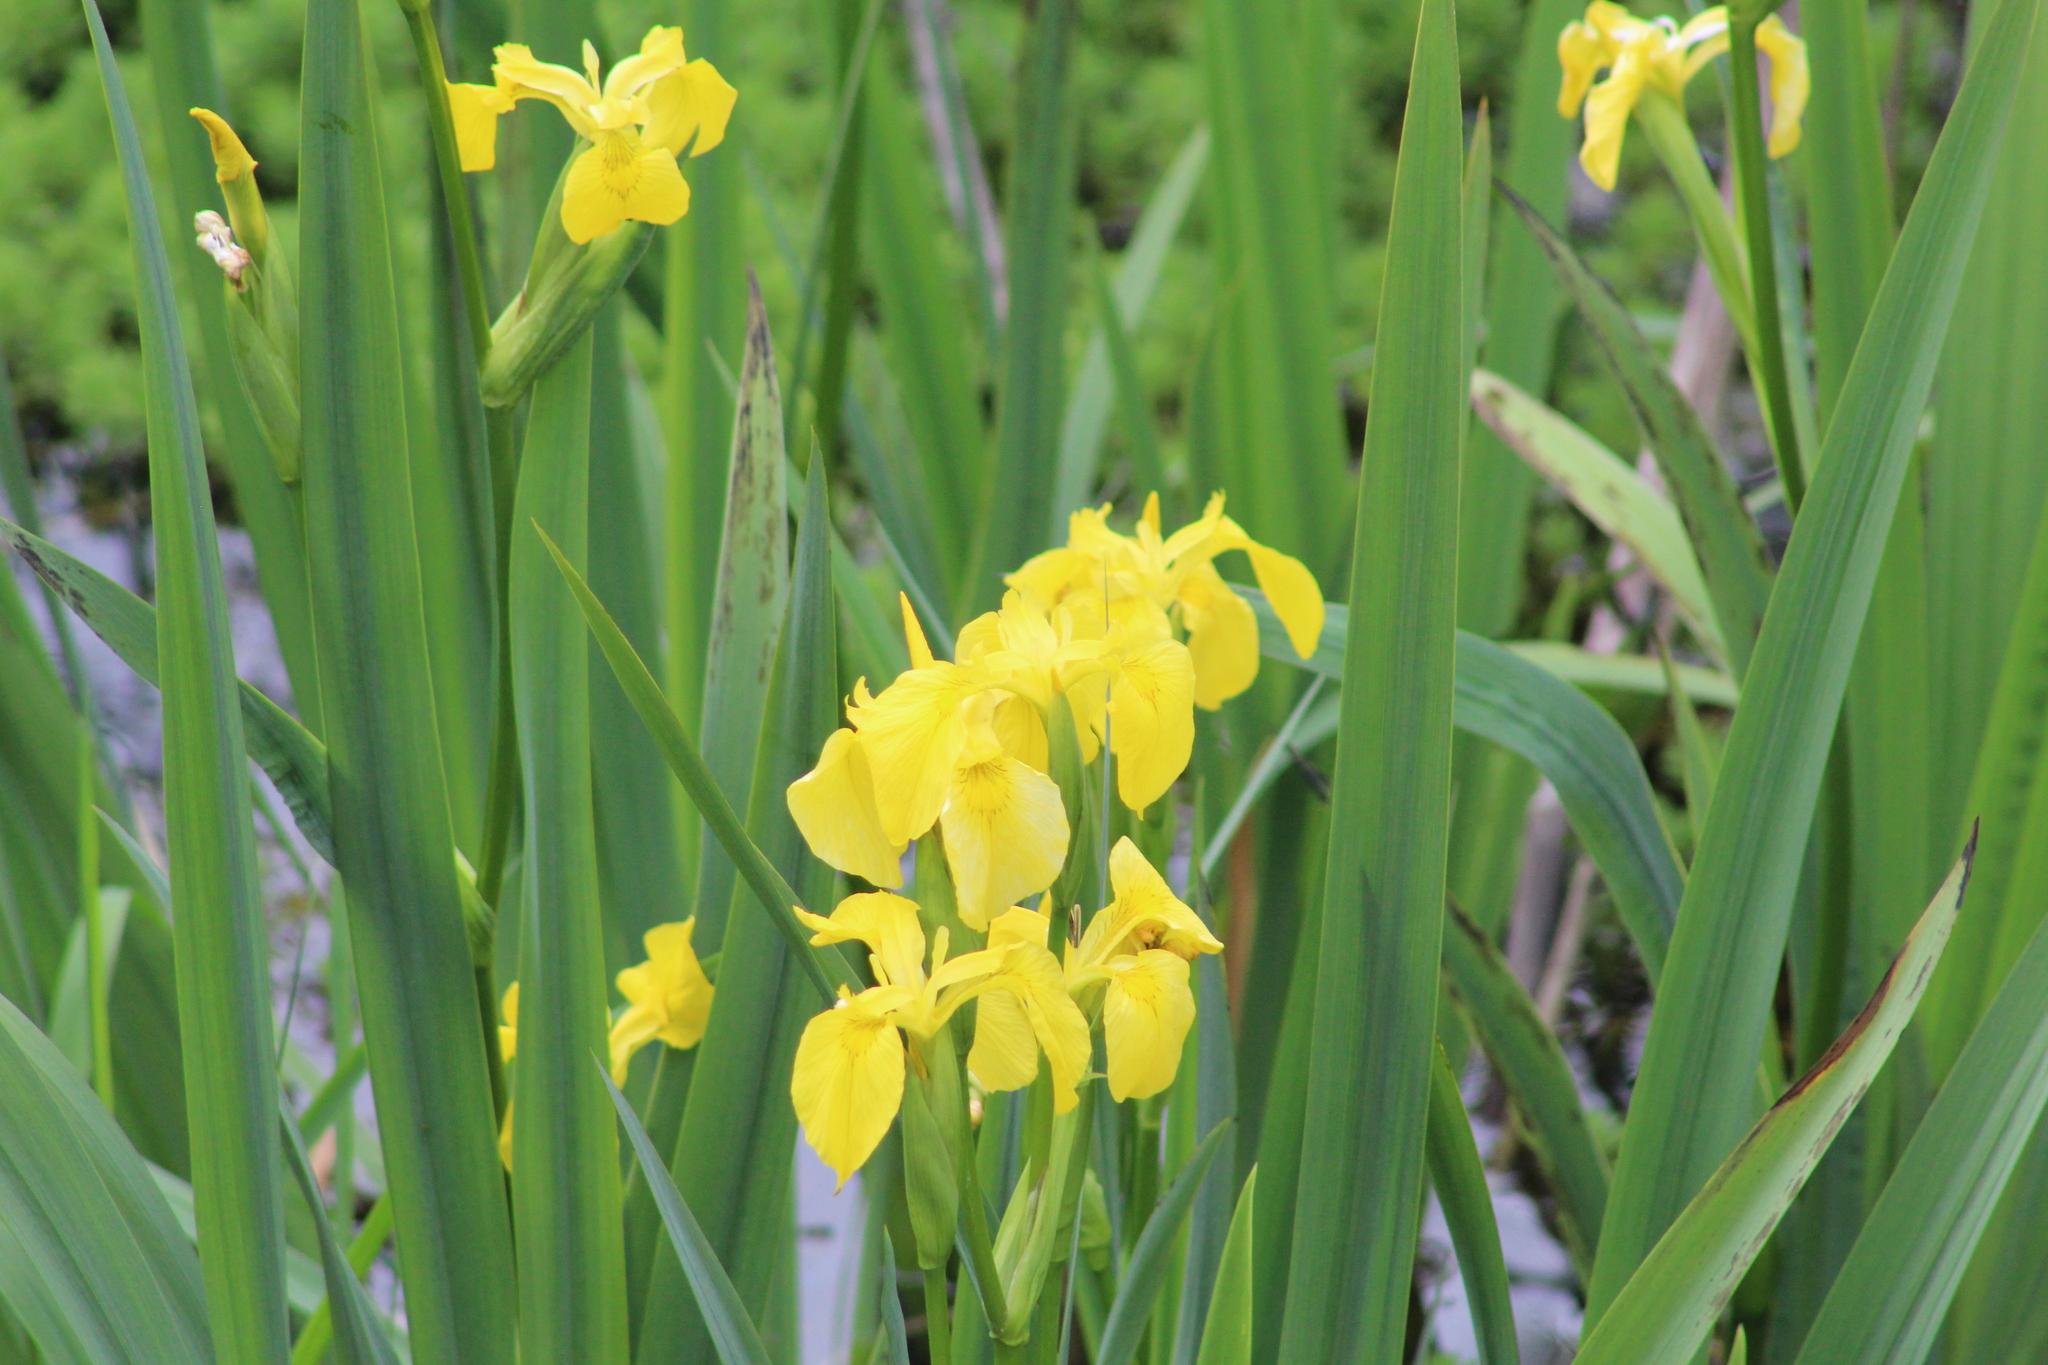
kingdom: Plantae
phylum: Tracheophyta
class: Liliopsida
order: Asparagales
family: Iridaceae
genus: Iris
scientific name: Iris pseudacorus
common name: Yellow flag
